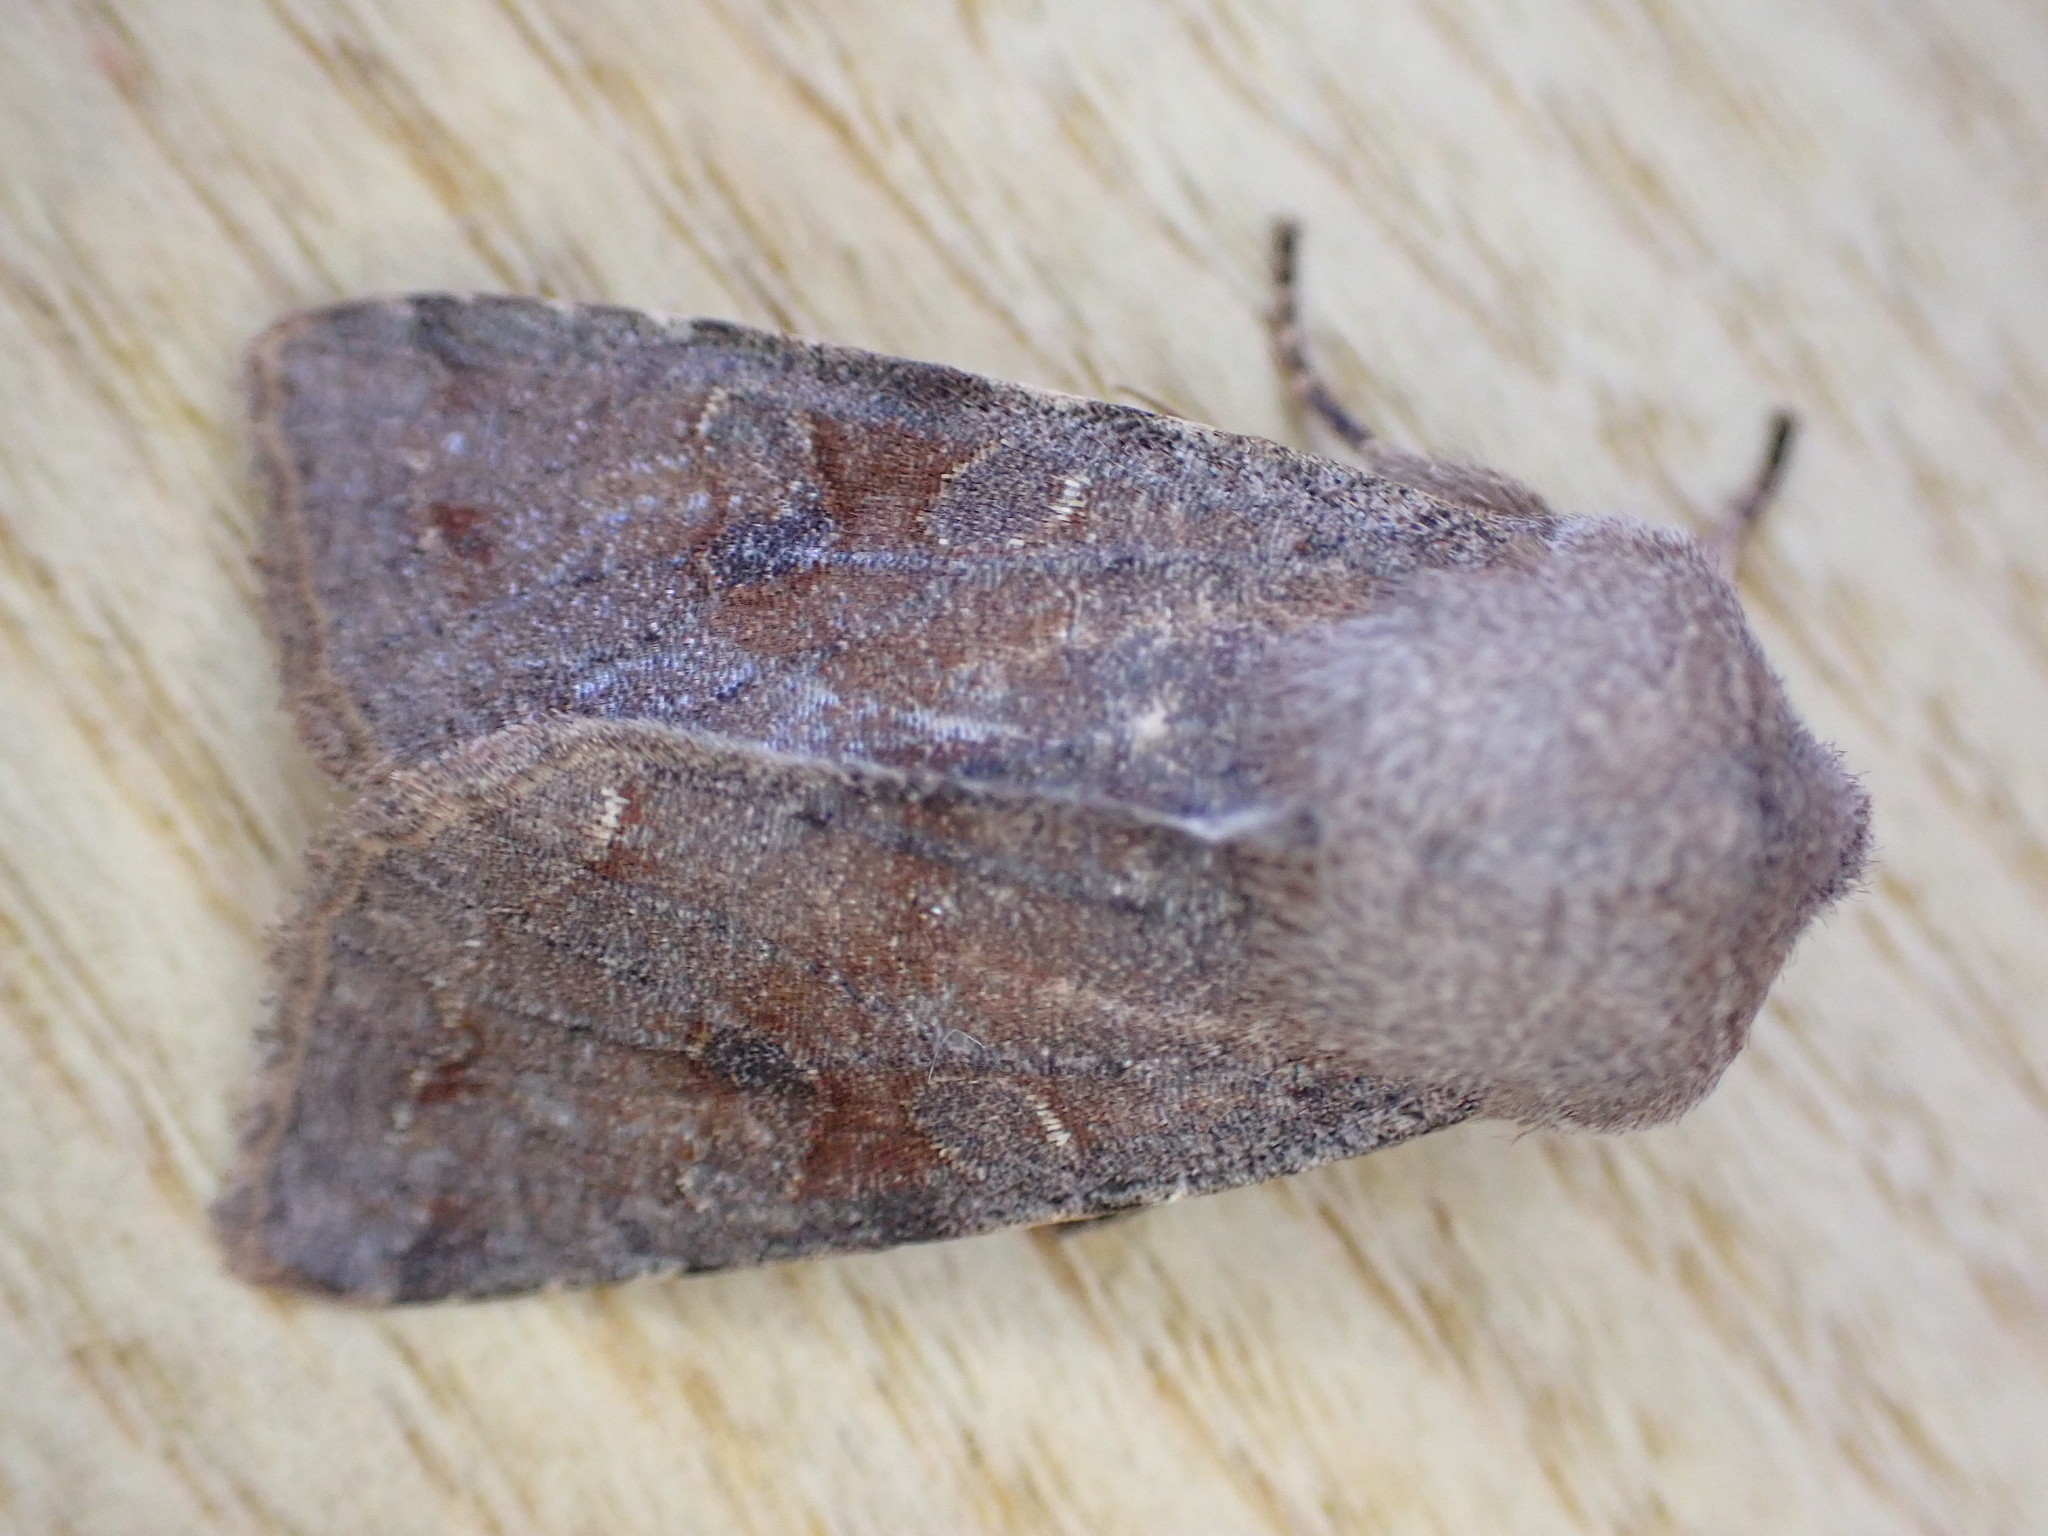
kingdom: Animalia
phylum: Arthropoda
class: Insecta
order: Lepidoptera
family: Noctuidae
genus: Orthosia
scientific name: Orthosia incerta
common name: Clouded drab
